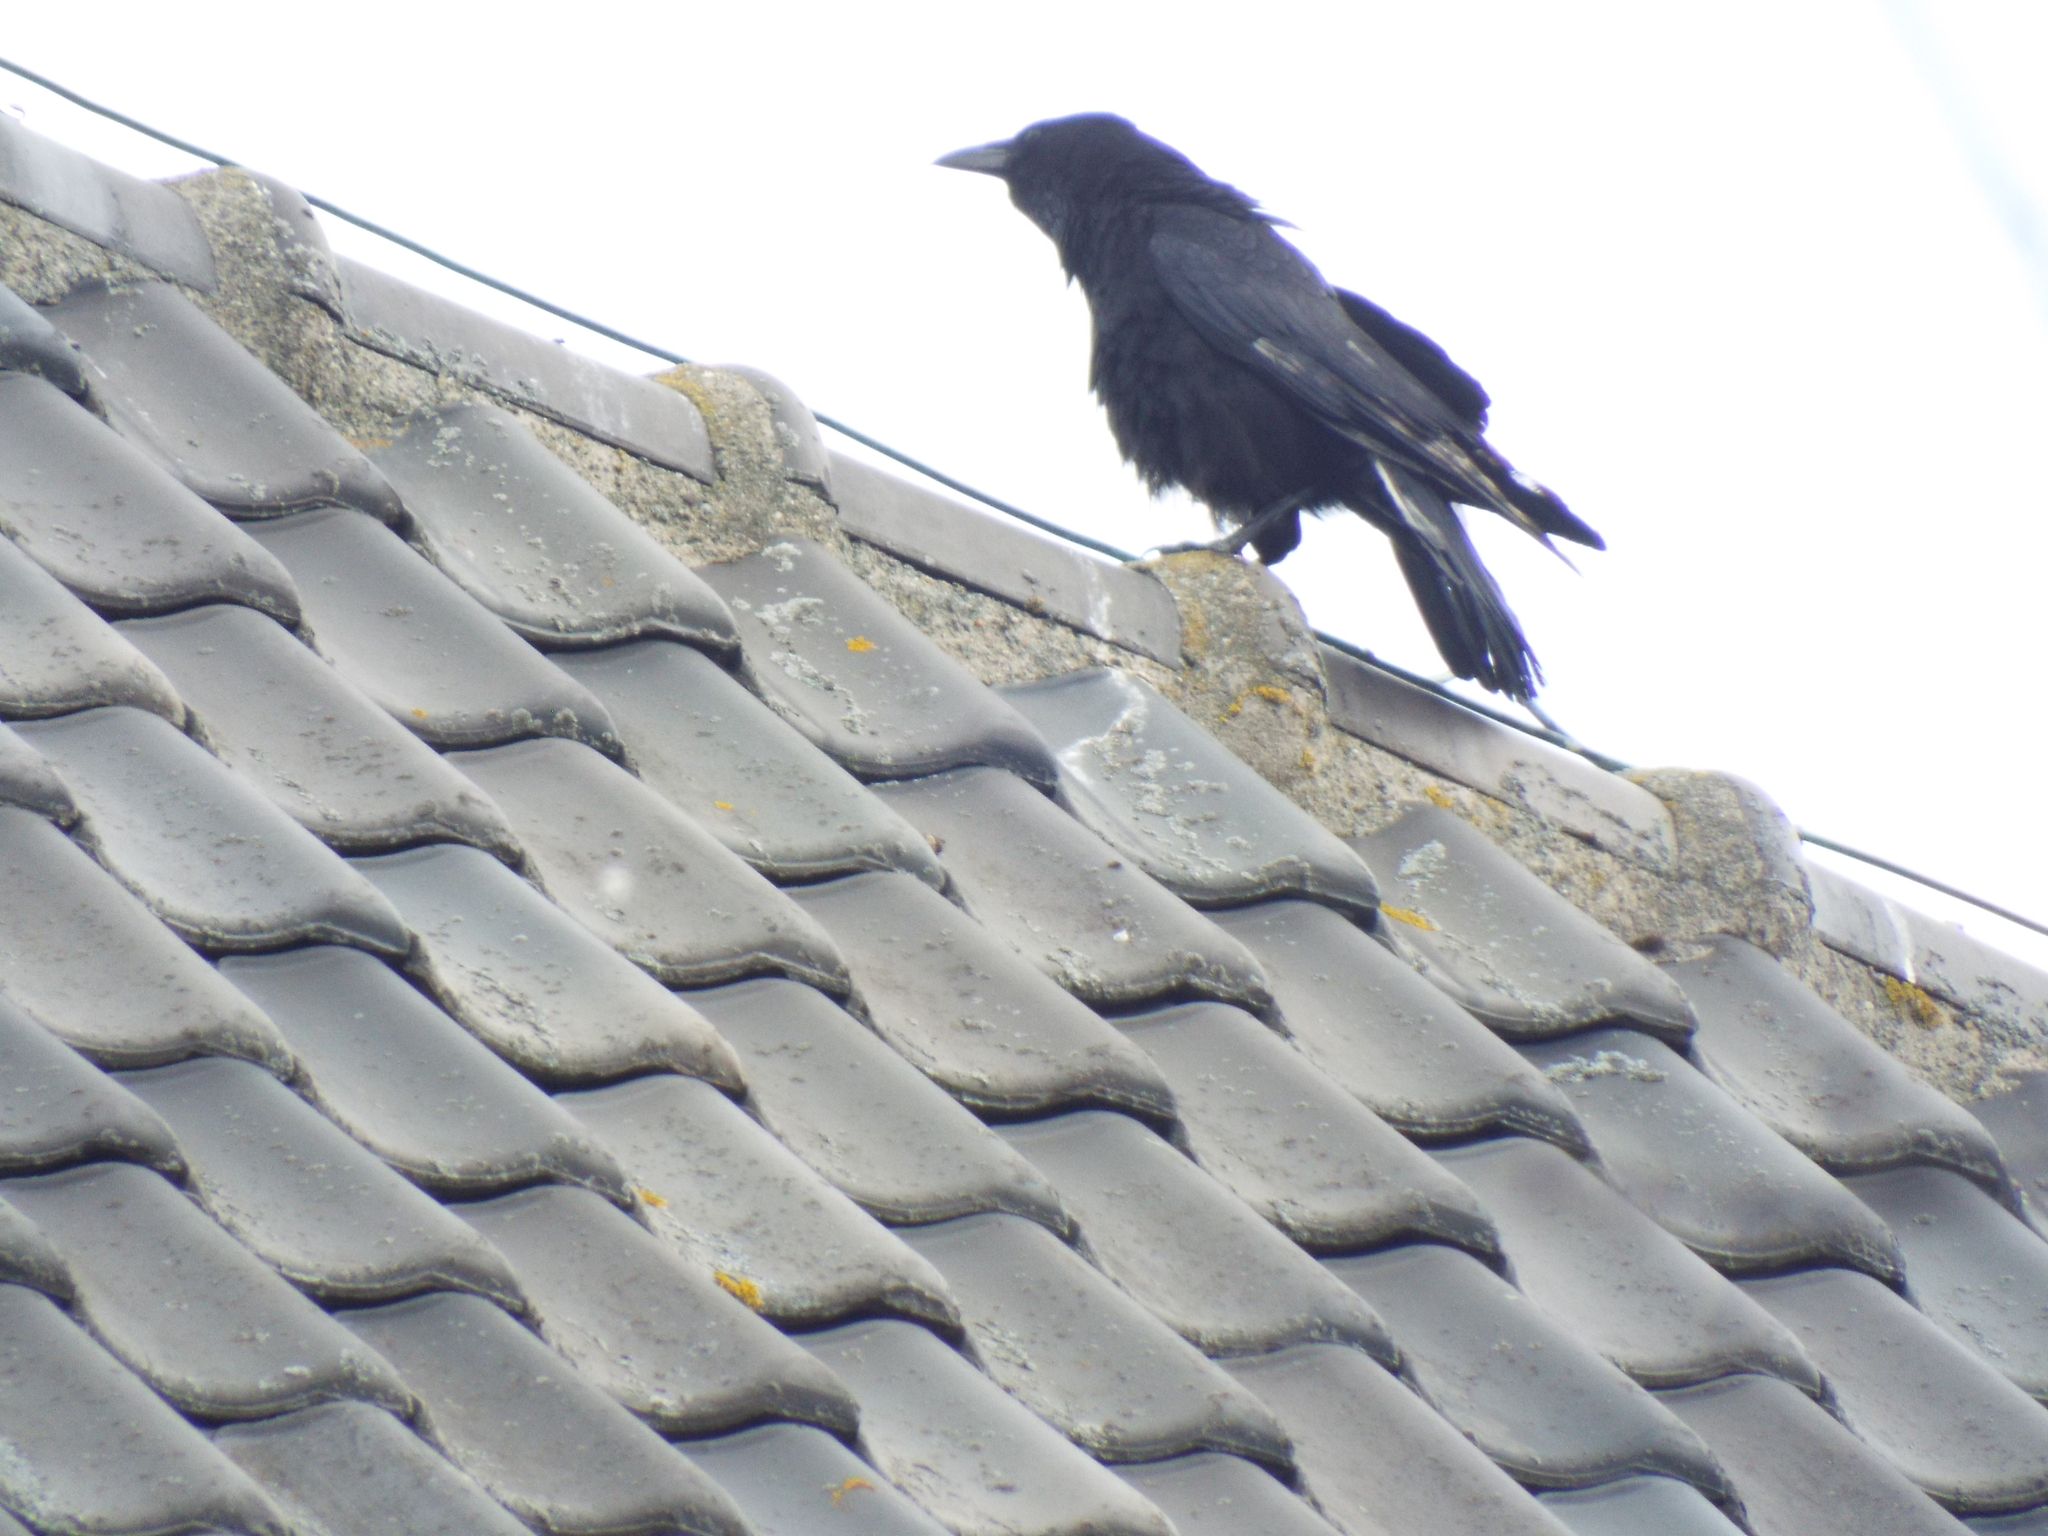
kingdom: Animalia
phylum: Chordata
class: Aves
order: Passeriformes
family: Corvidae
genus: Corvus
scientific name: Corvus corone
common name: Carrion crow
